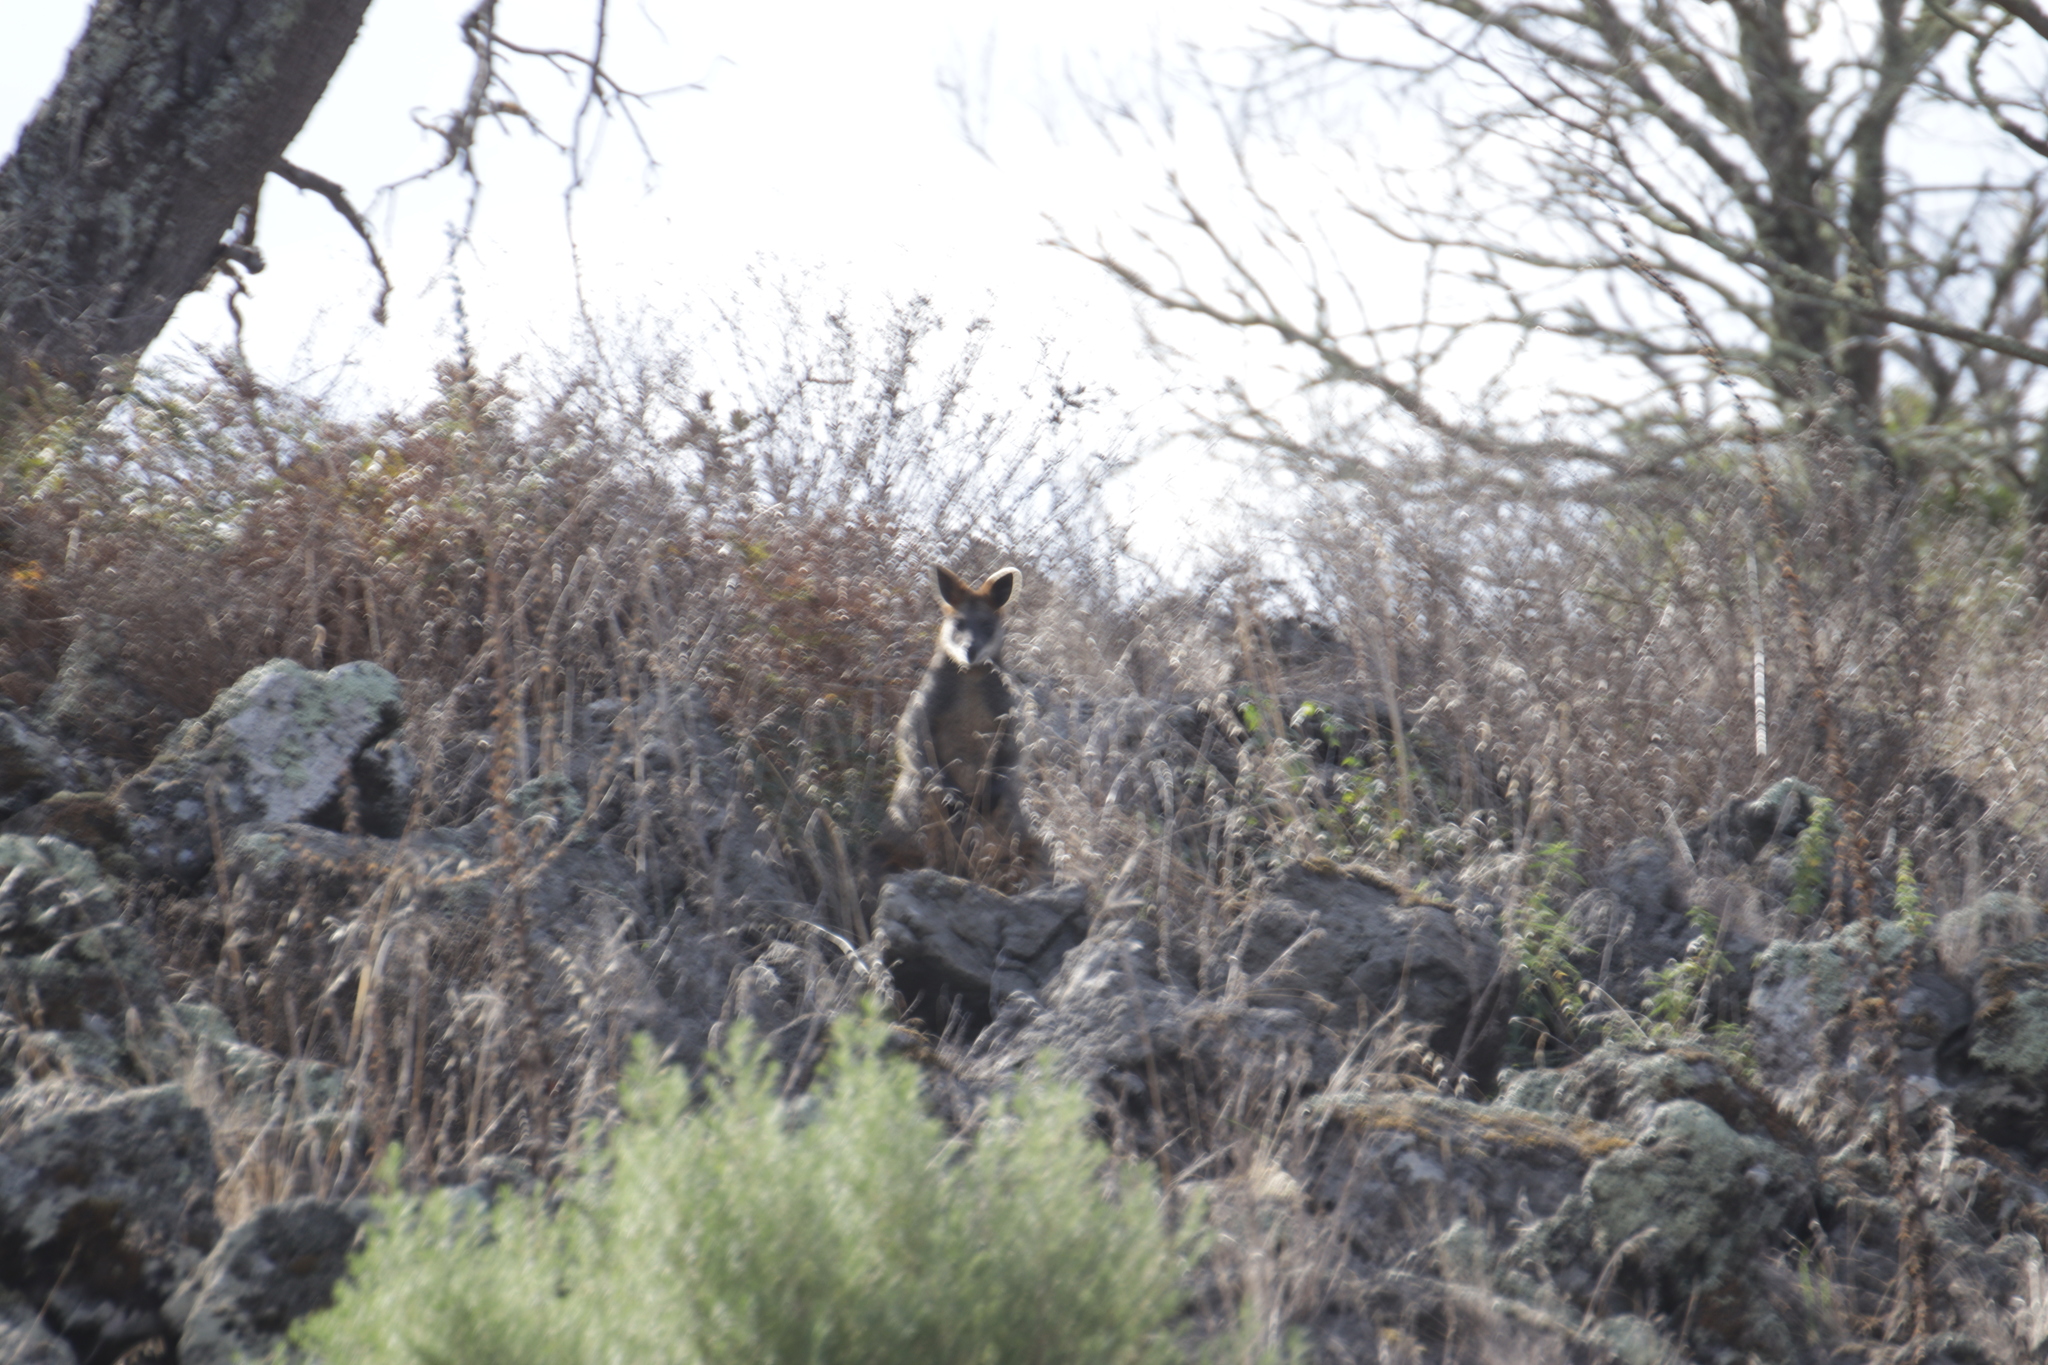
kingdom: Animalia
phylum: Chordata
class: Mammalia
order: Diprotodontia
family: Macropodidae
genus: Wallabia
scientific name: Wallabia bicolor
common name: Swamp wallaby
